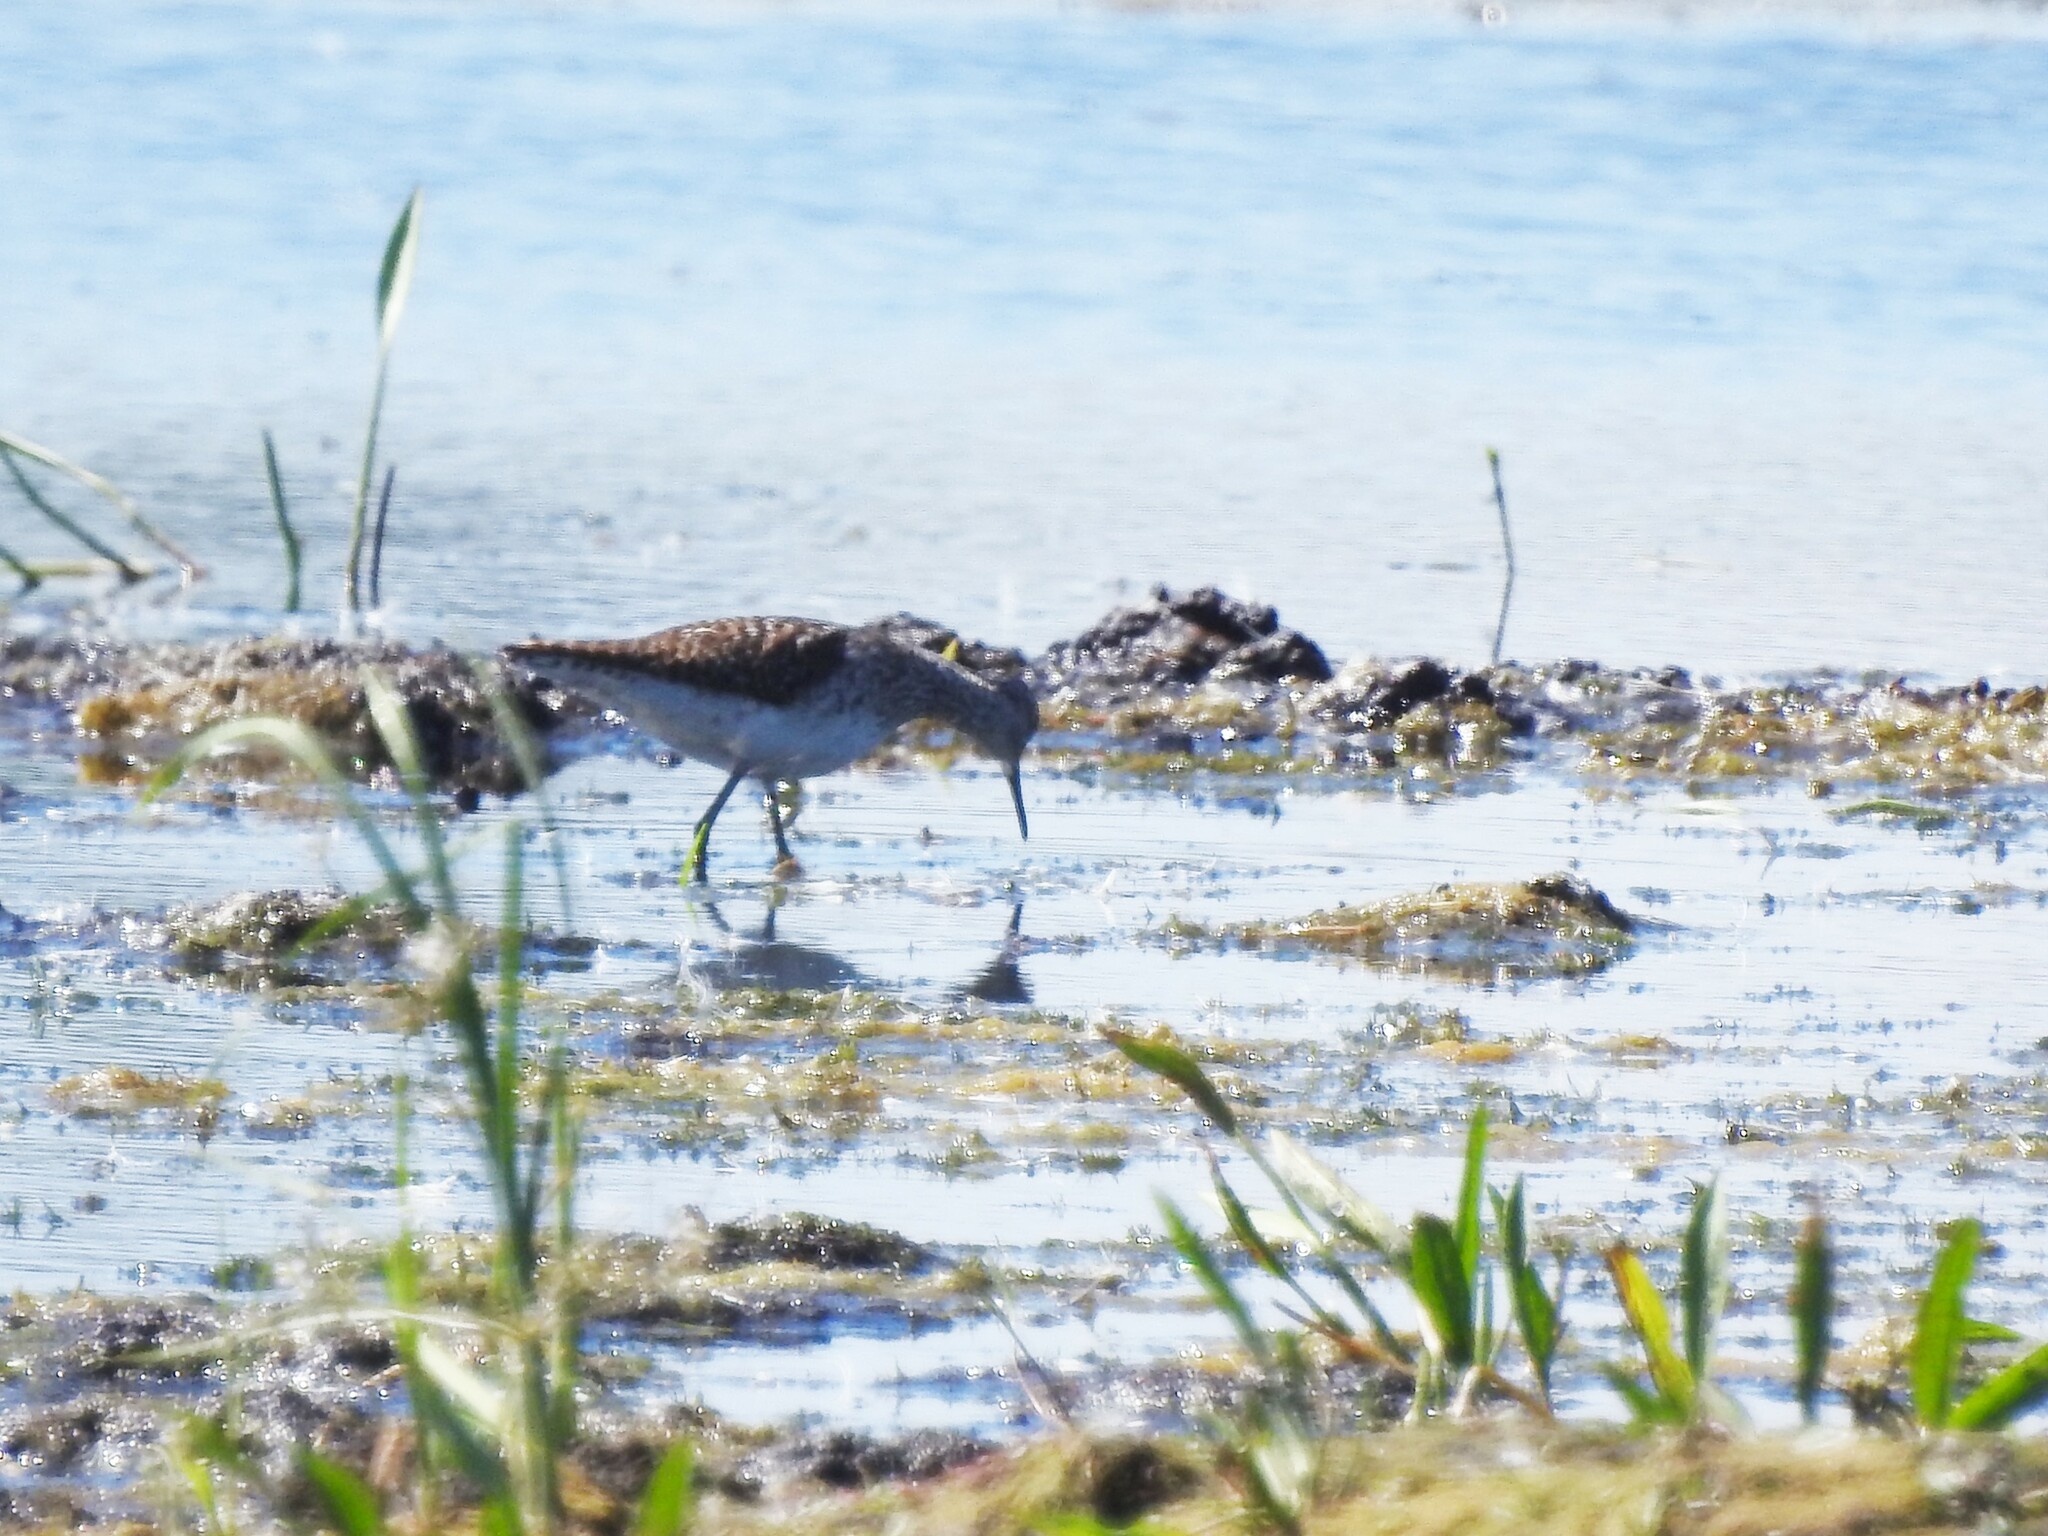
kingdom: Animalia
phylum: Chordata
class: Aves
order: Charadriiformes
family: Scolopacidae
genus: Tringa
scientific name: Tringa glareola
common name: Wood sandpiper
